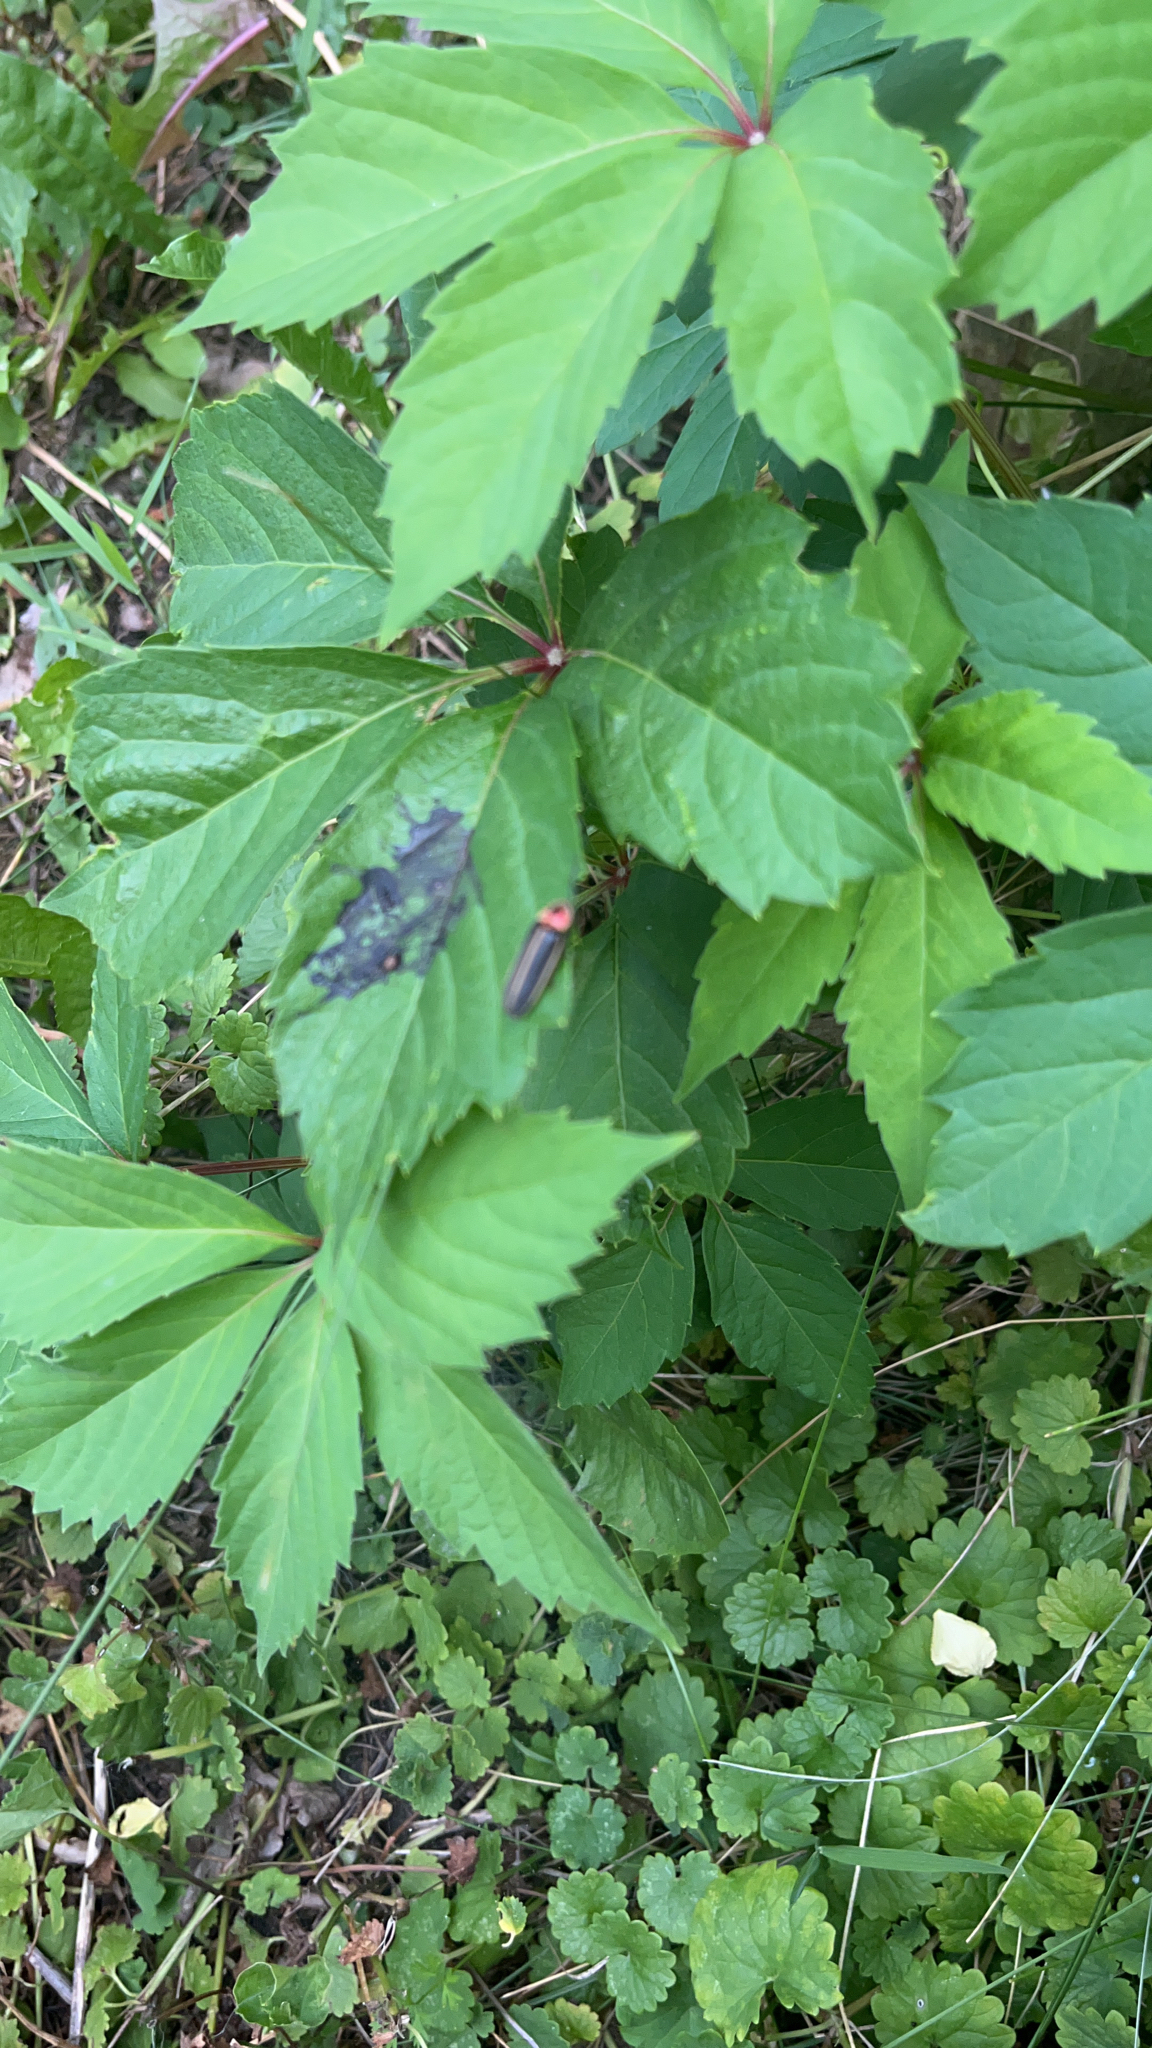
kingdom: Animalia
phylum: Arthropoda
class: Insecta
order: Coleoptera
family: Lampyridae
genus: Photinus
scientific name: Photinus pyralis
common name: Big dipper firefly
